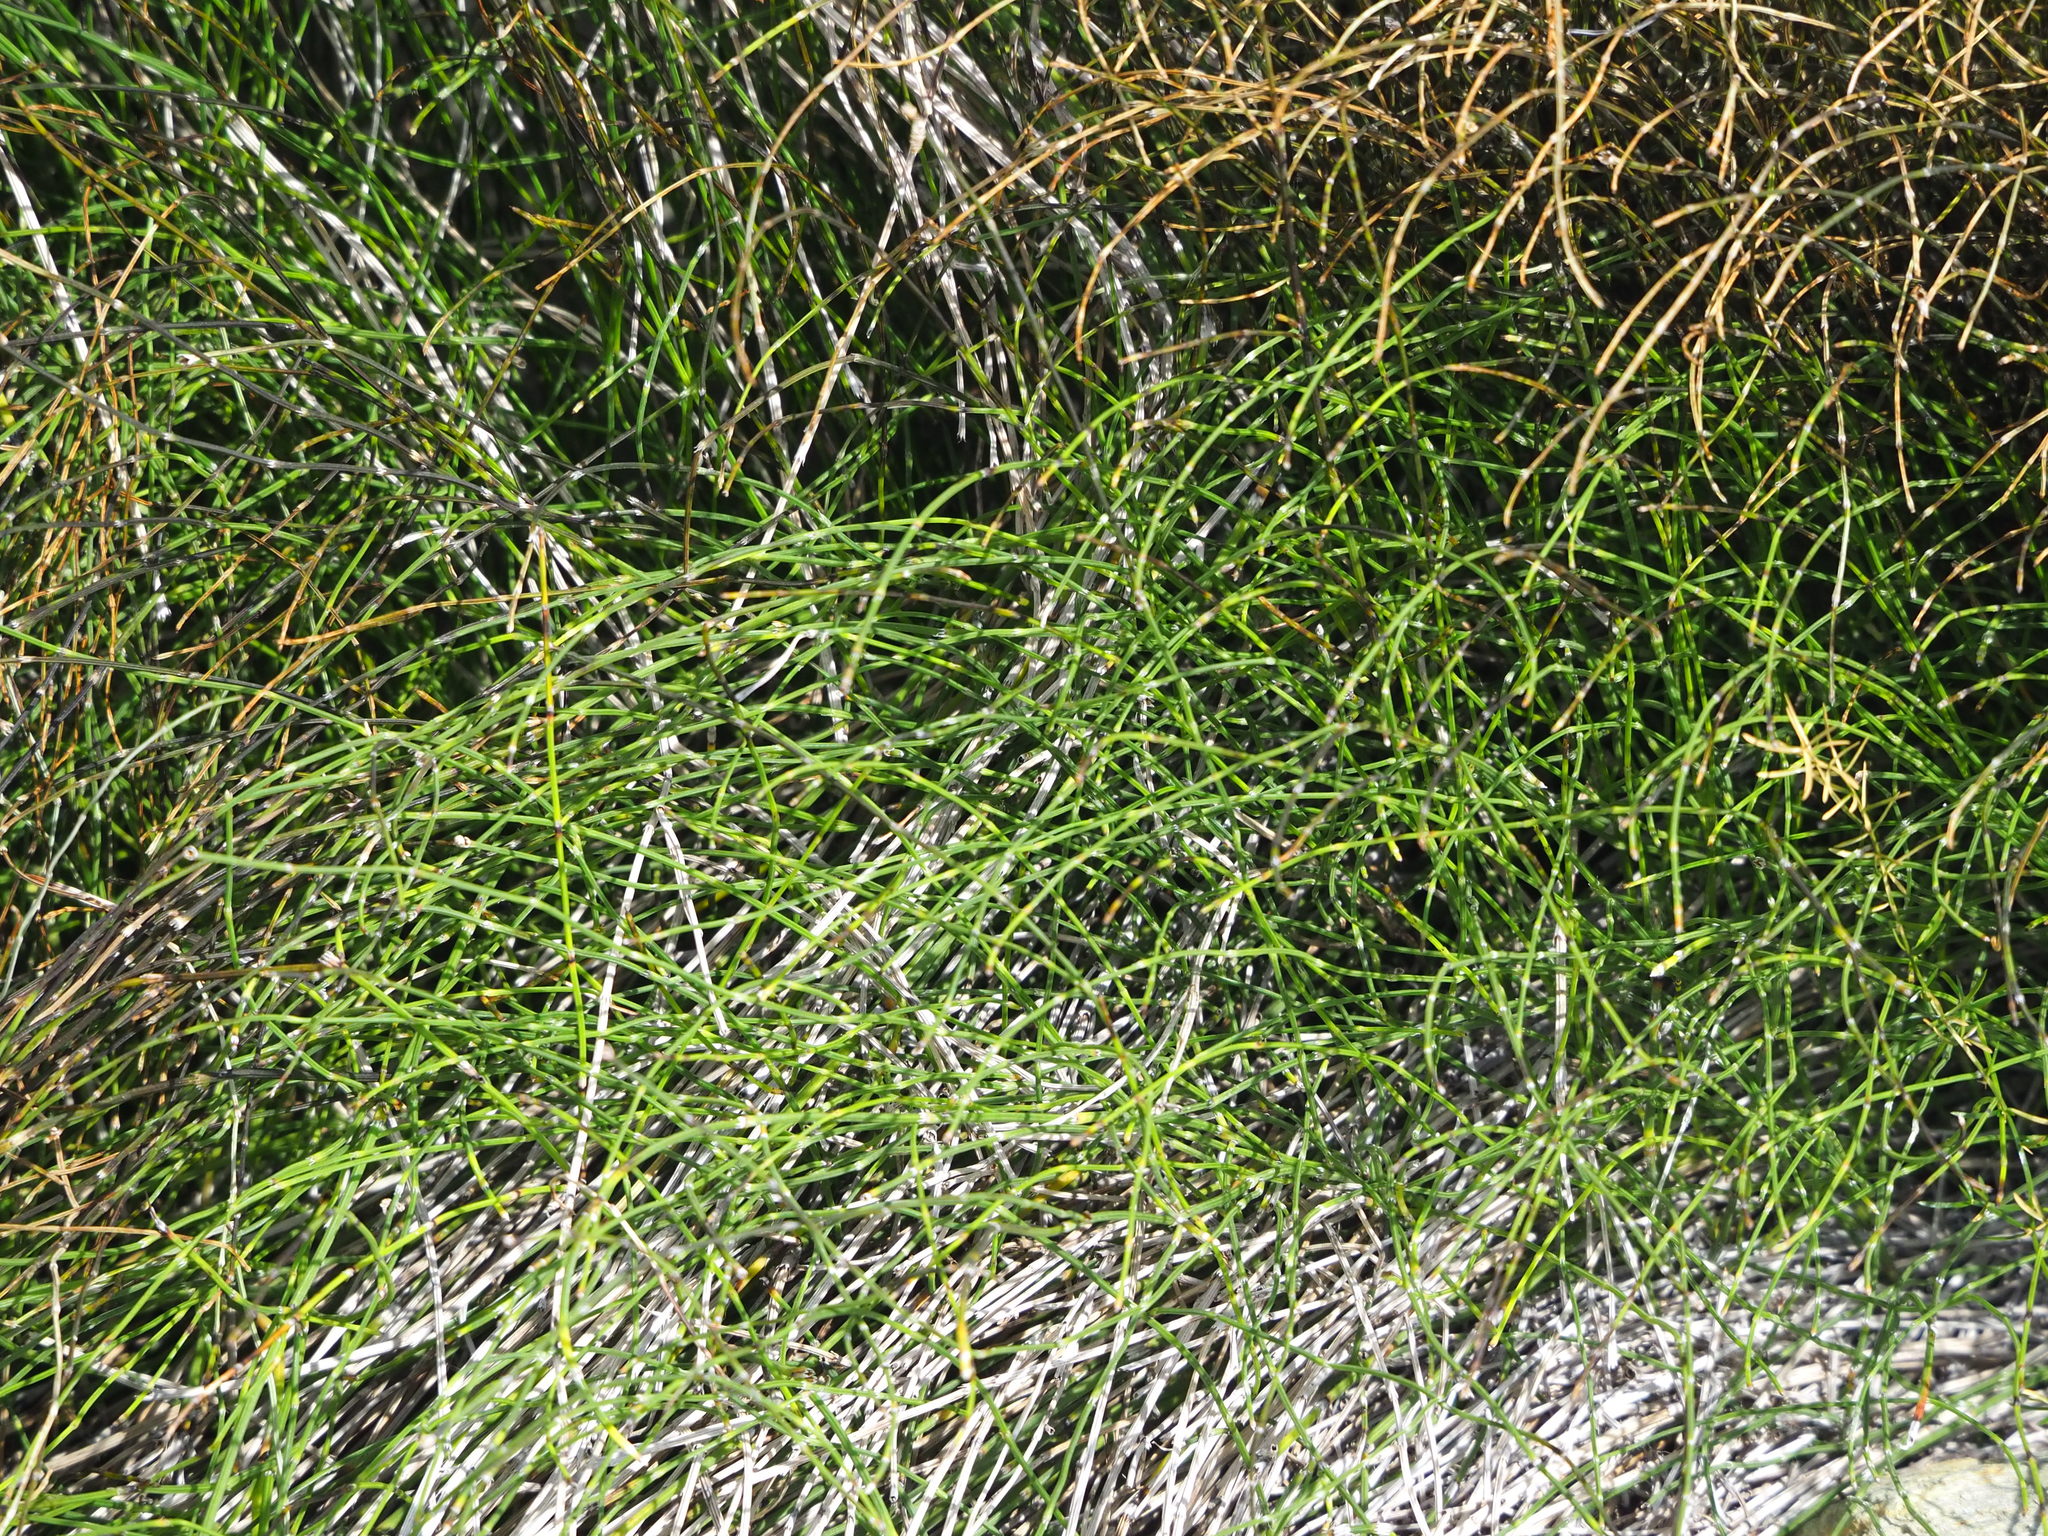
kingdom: Plantae
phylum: Tracheophyta
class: Polypodiopsida
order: Equisetales
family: Equisetaceae
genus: Equisetum
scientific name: Equisetum ramosissimum
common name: Branched horsetail
